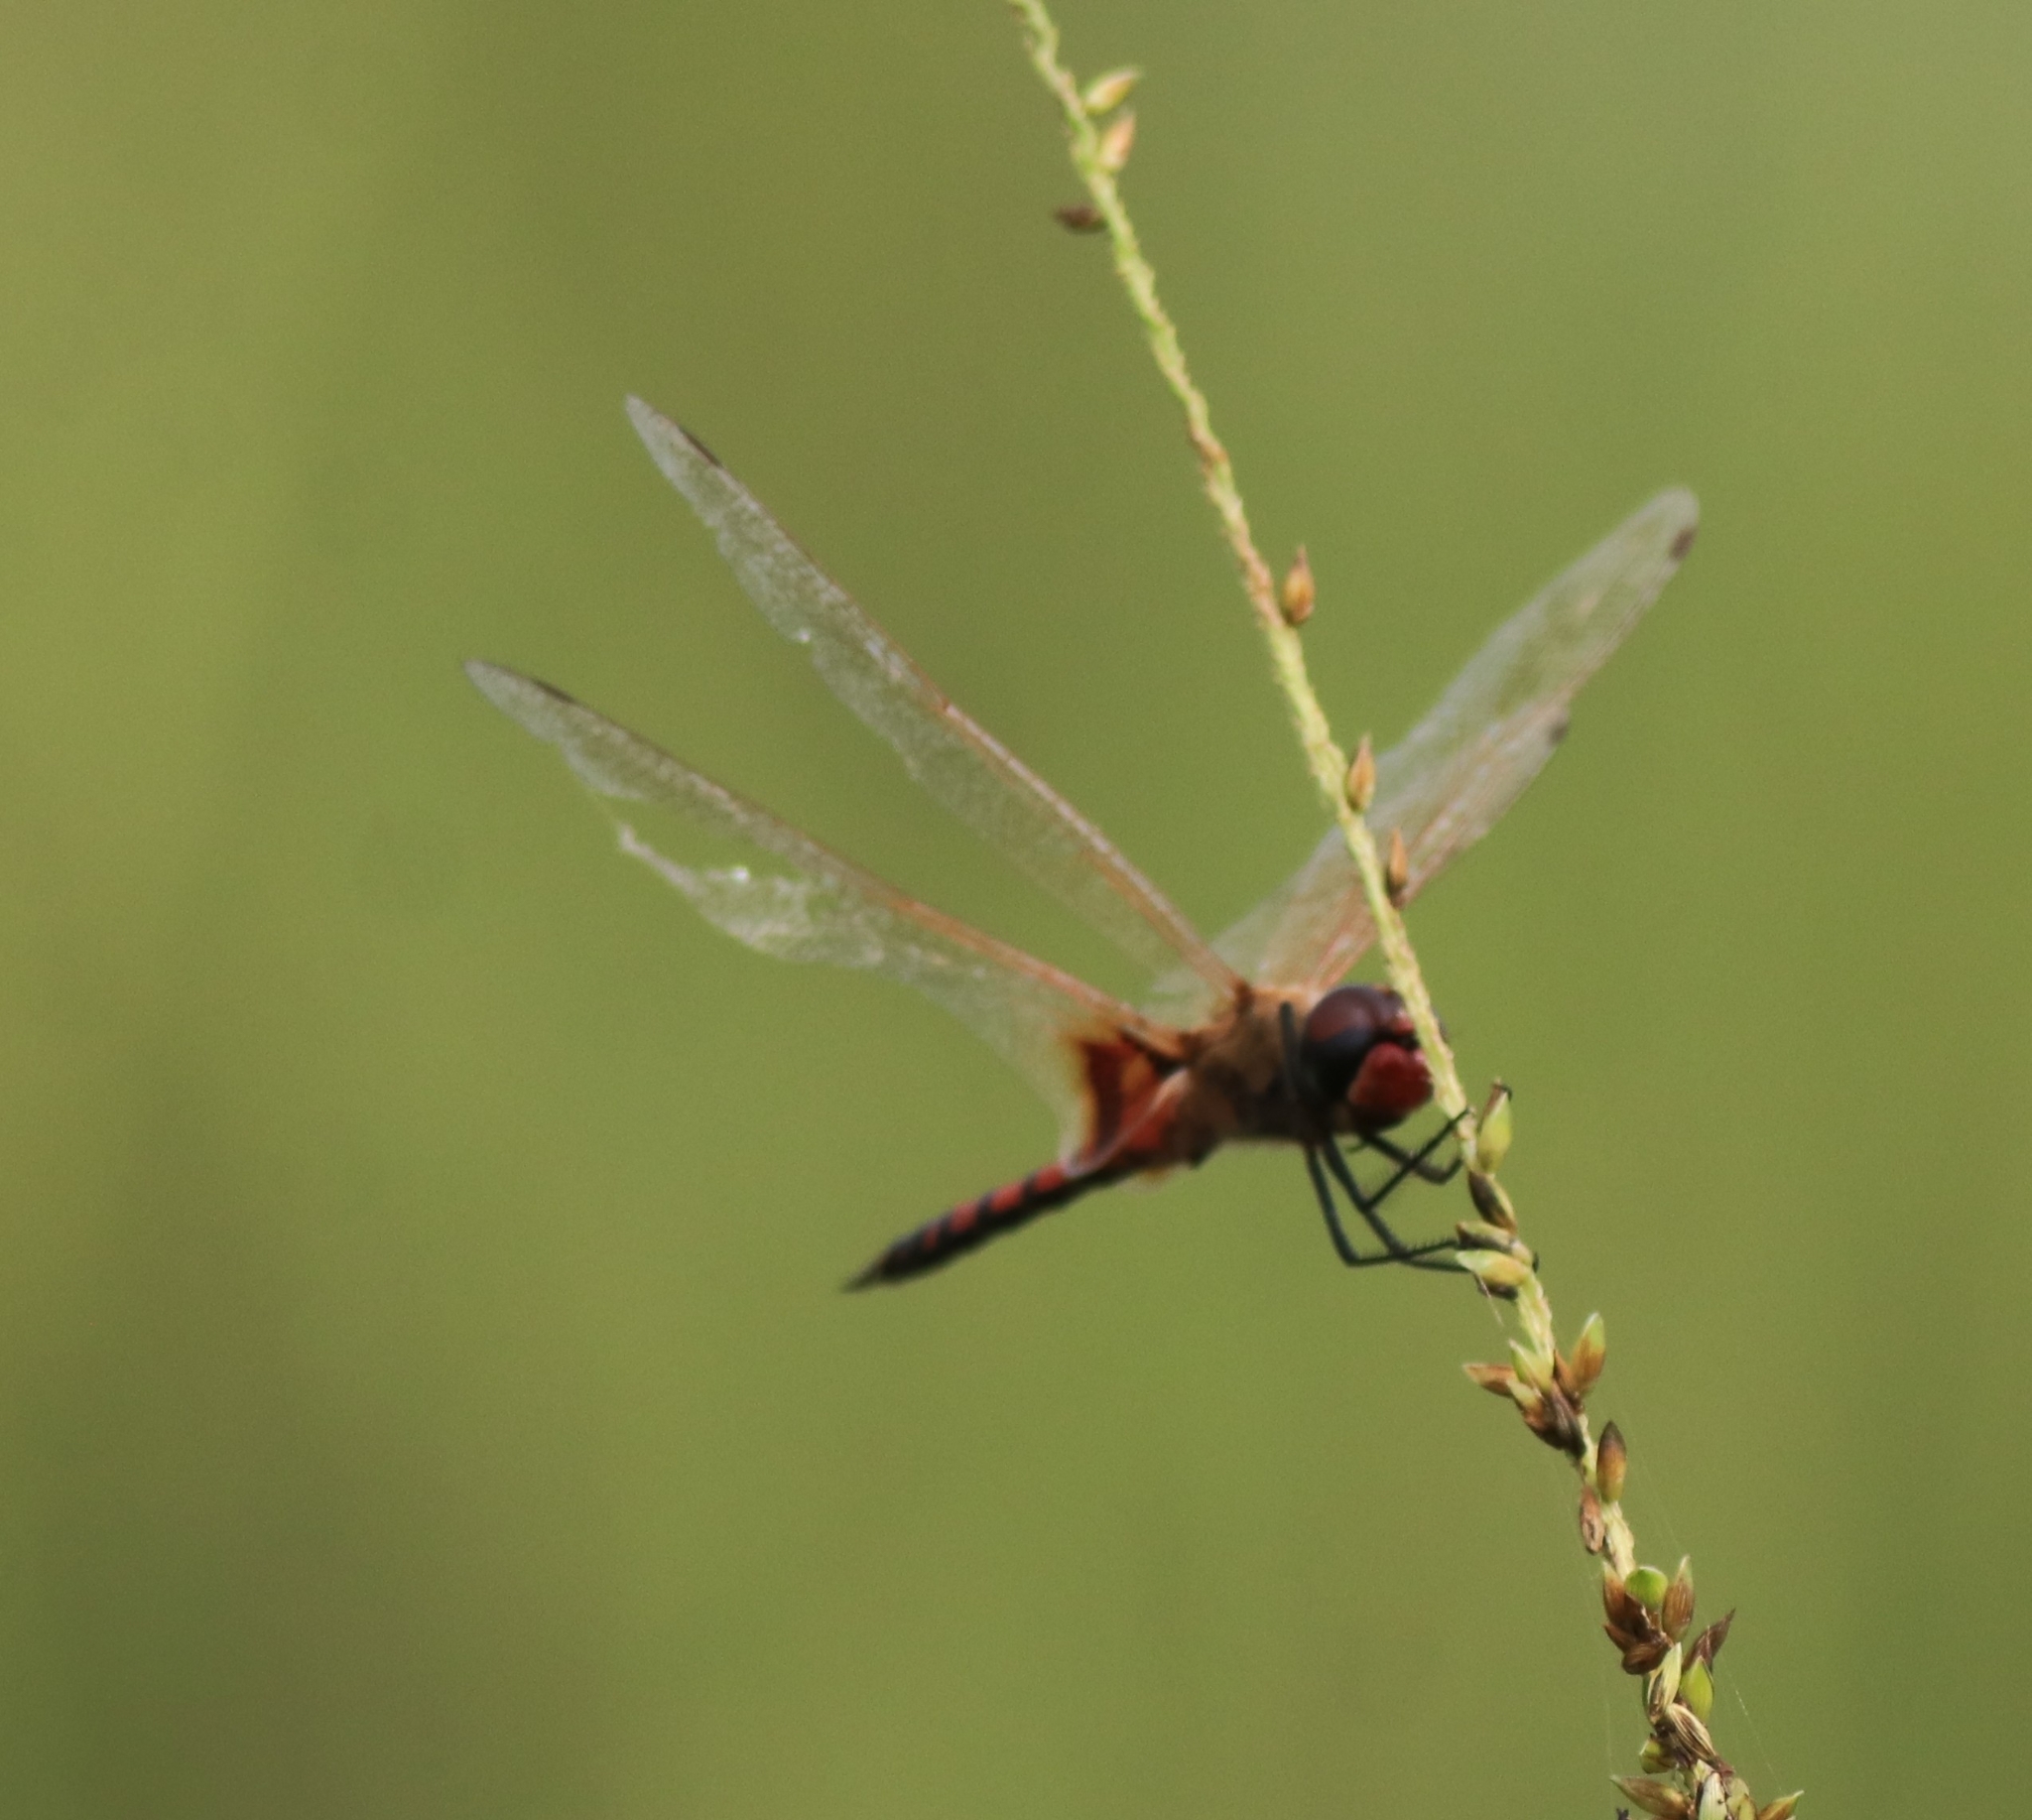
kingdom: Animalia
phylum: Arthropoda
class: Insecta
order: Odonata
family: Libellulidae
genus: Tramea
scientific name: Tramea basilaris
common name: Keyhole glider
